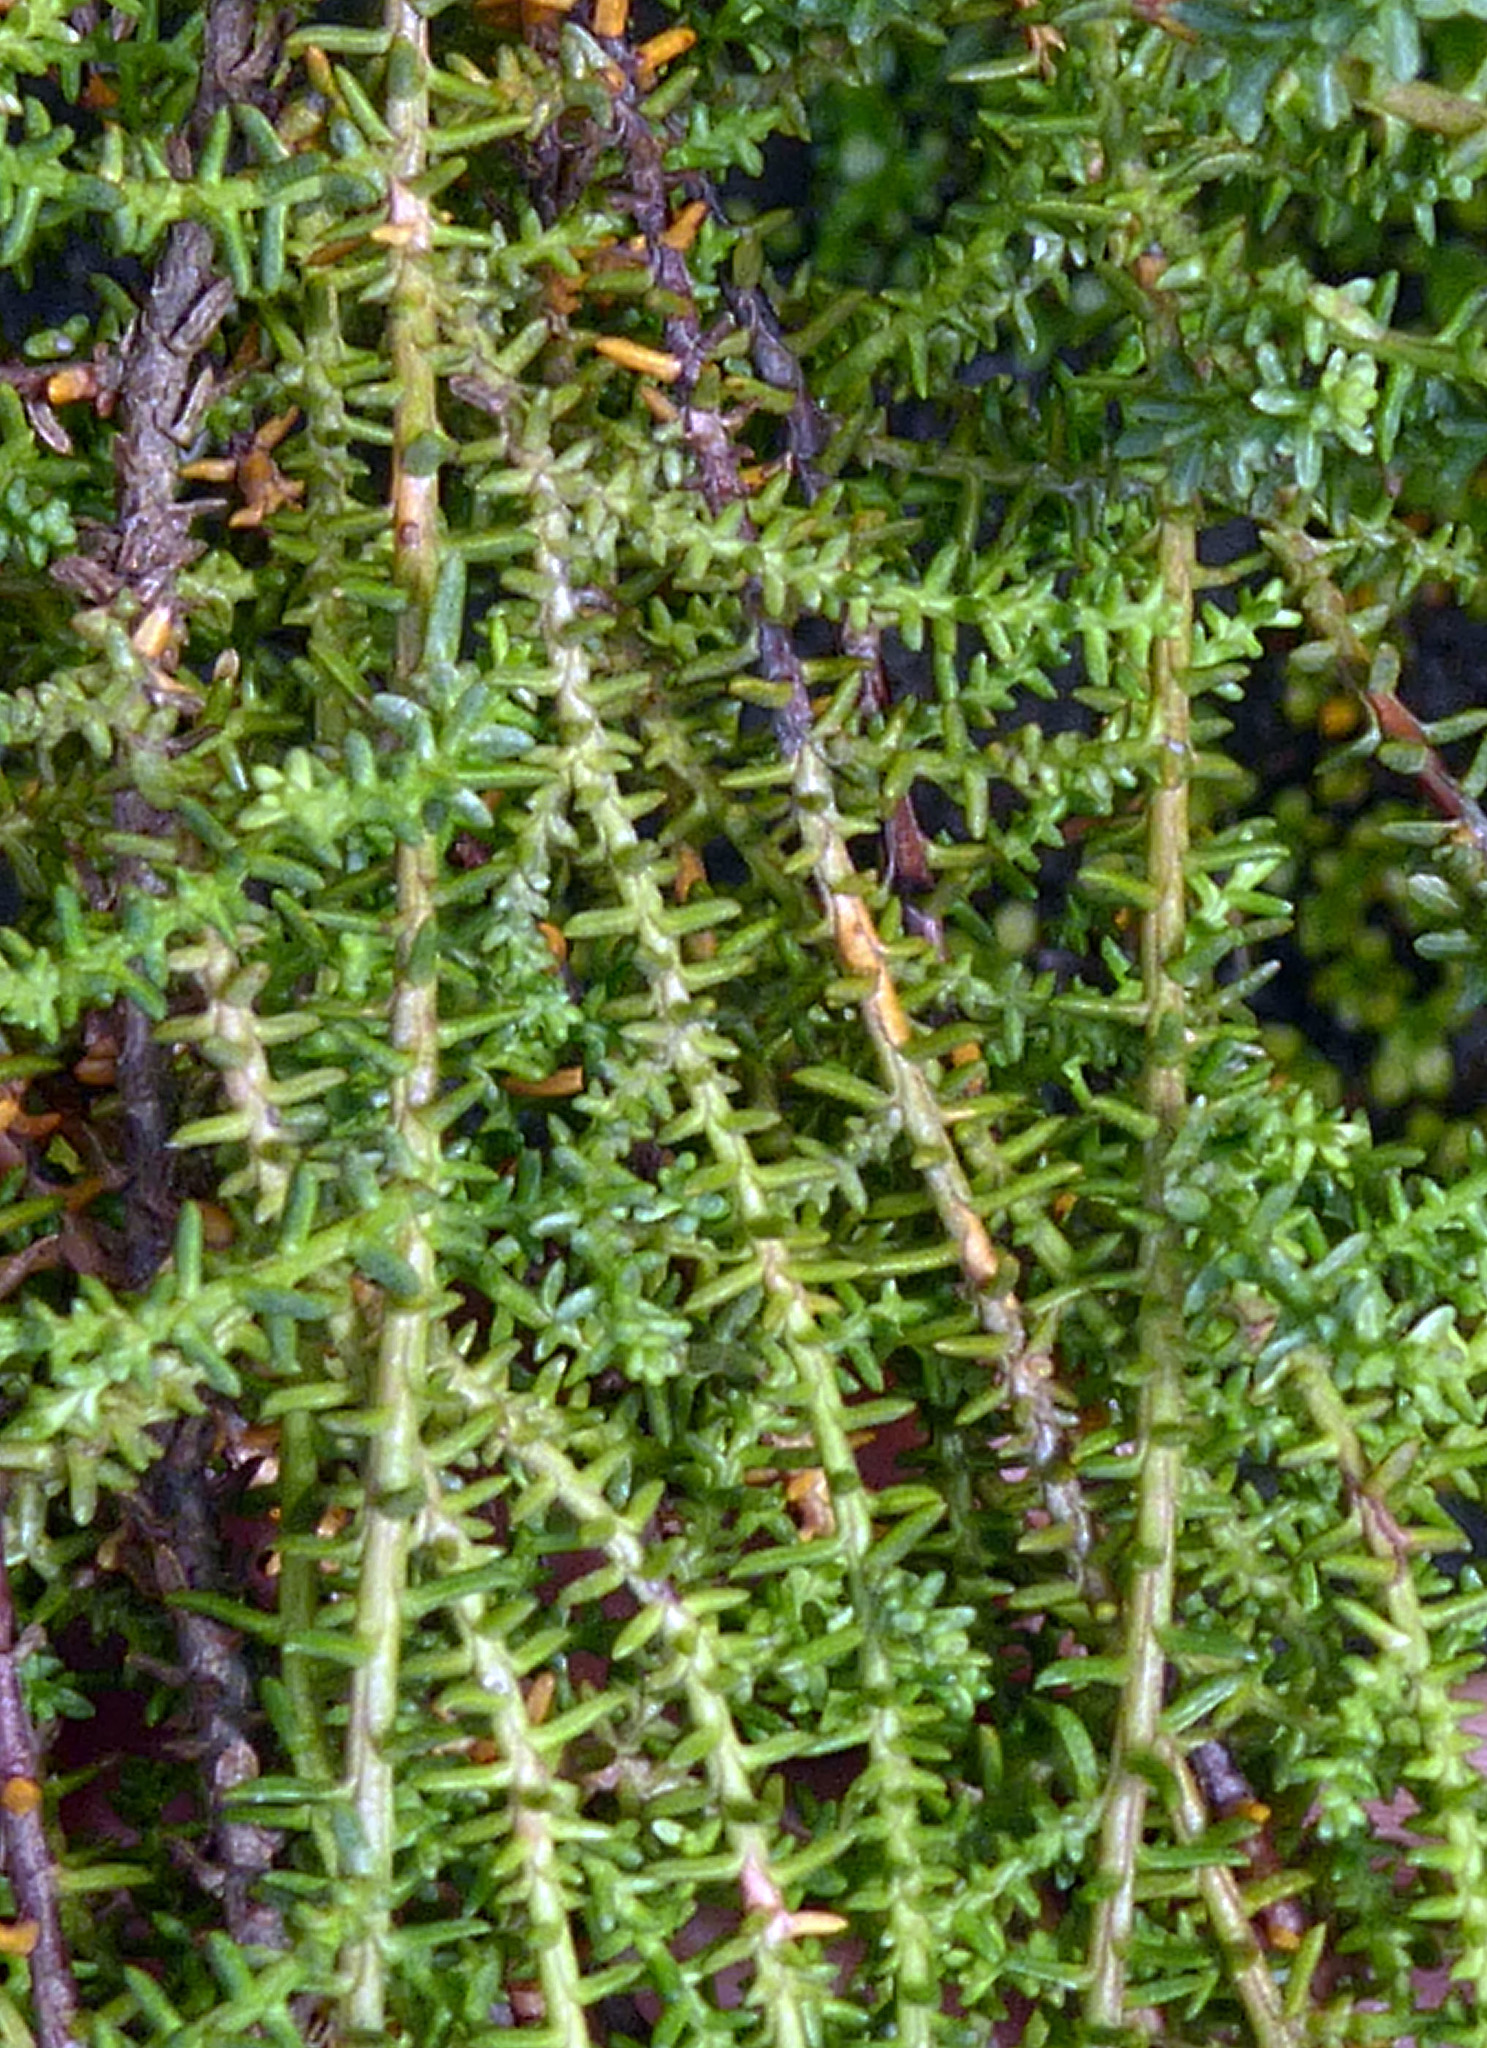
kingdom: Plantae
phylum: Tracheophyta
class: Pinopsida
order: Pinales
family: Podocarpaceae
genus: Lepidothamnus
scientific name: Lepidothamnus laxifolius
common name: Pygmy pine
